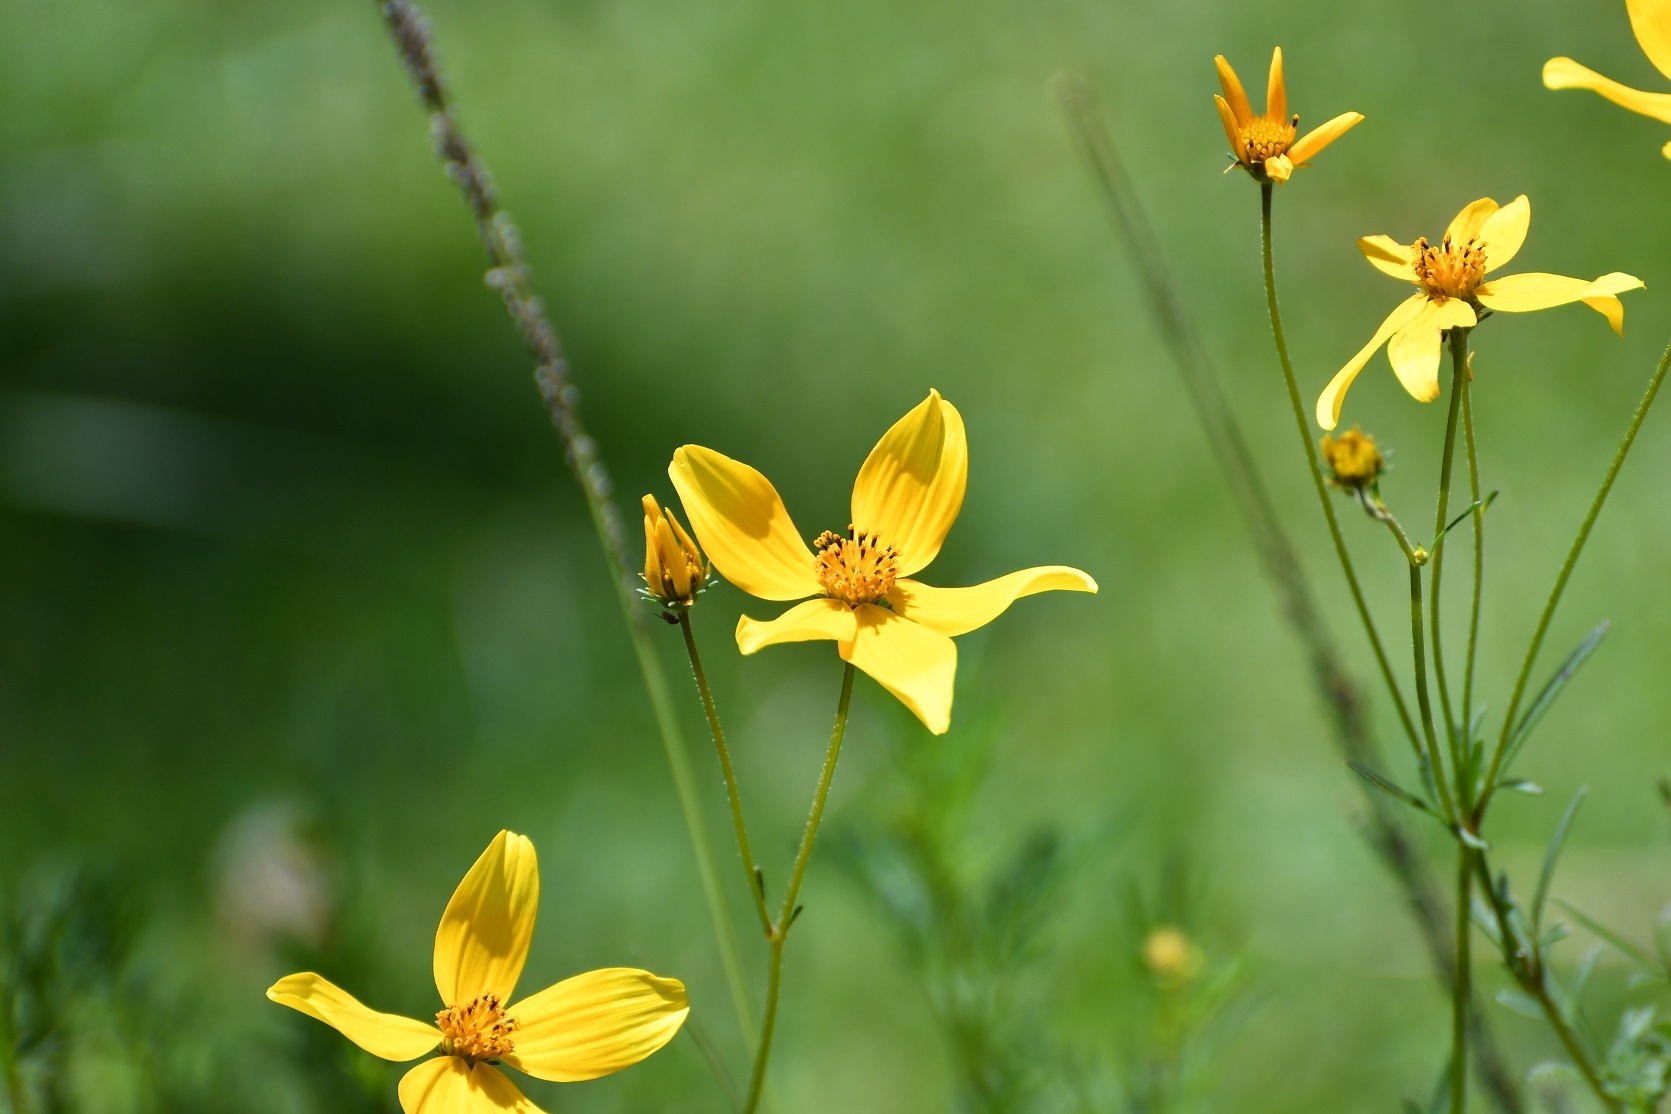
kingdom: Plantae
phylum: Tracheophyta
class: Magnoliopsida
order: Asterales
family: Asteraceae
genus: Bidens
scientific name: Bidens triplinervia
